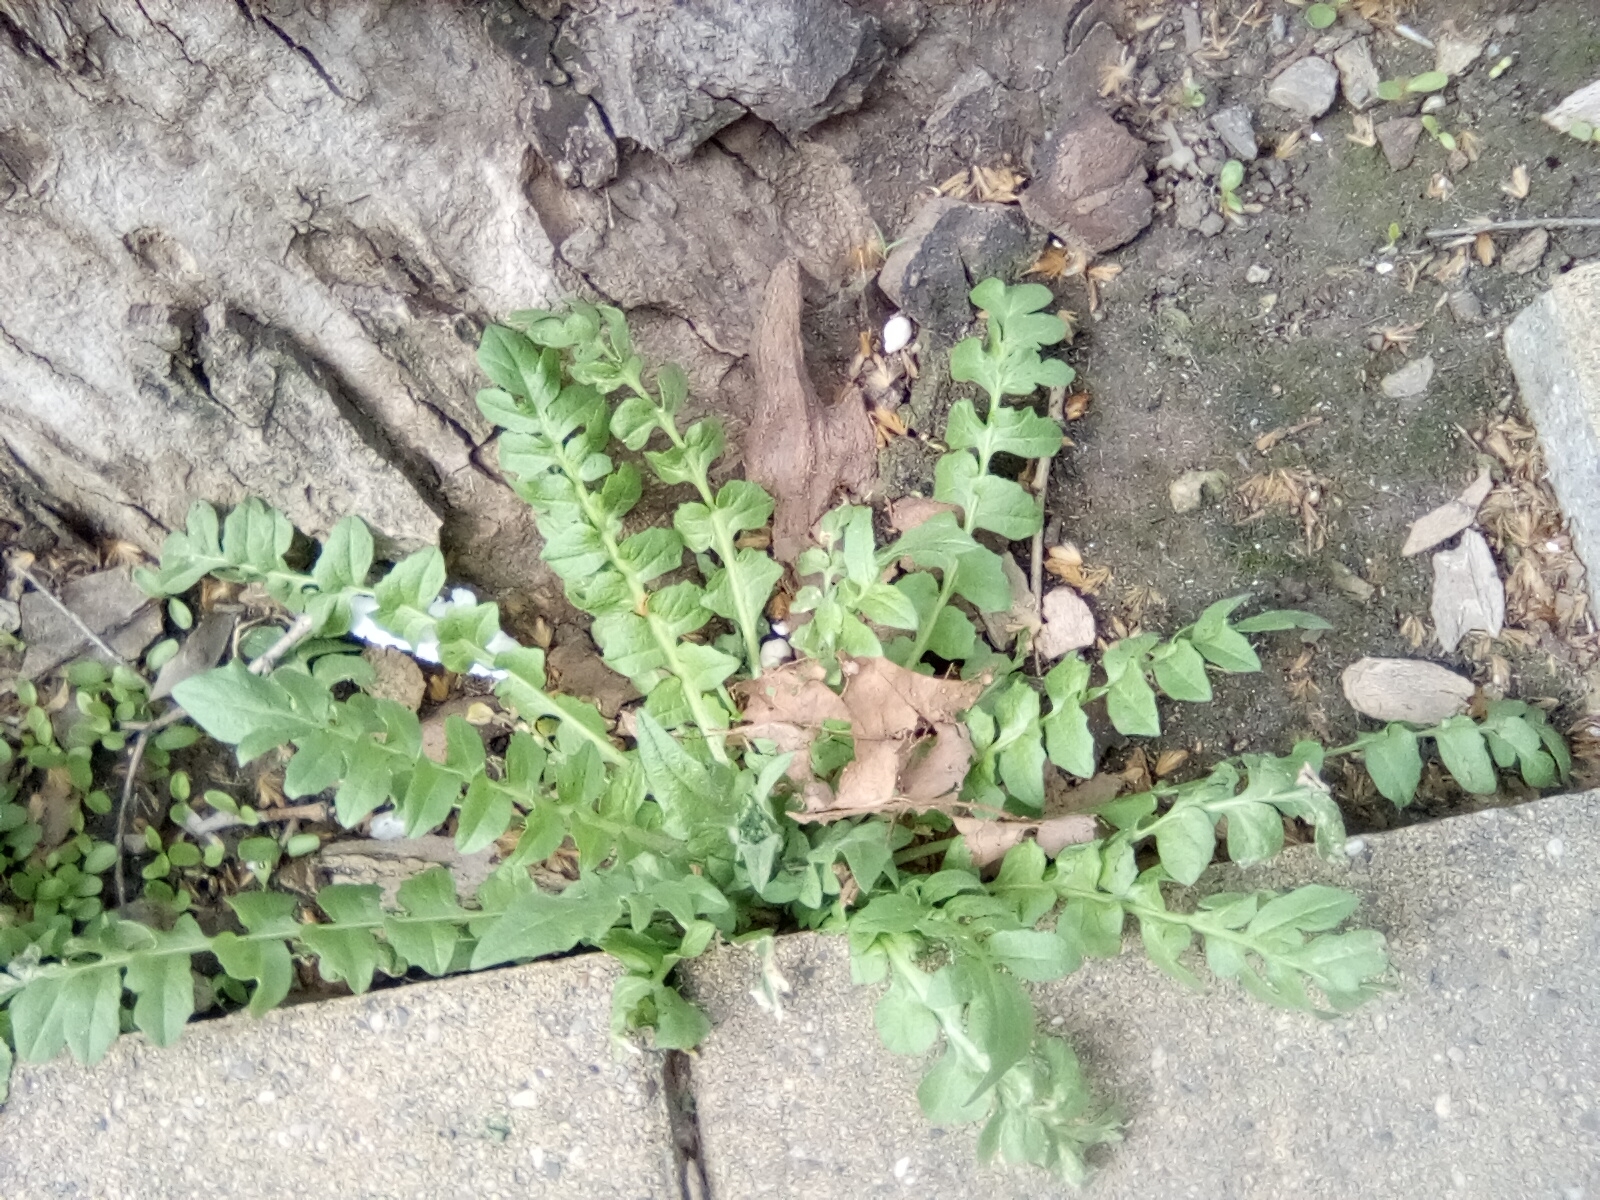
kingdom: Plantae
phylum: Tracheophyta
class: Magnoliopsida
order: Brassicales
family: Brassicaceae
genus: Capsella
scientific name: Capsella bursa-pastoris
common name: Shepherd's purse
